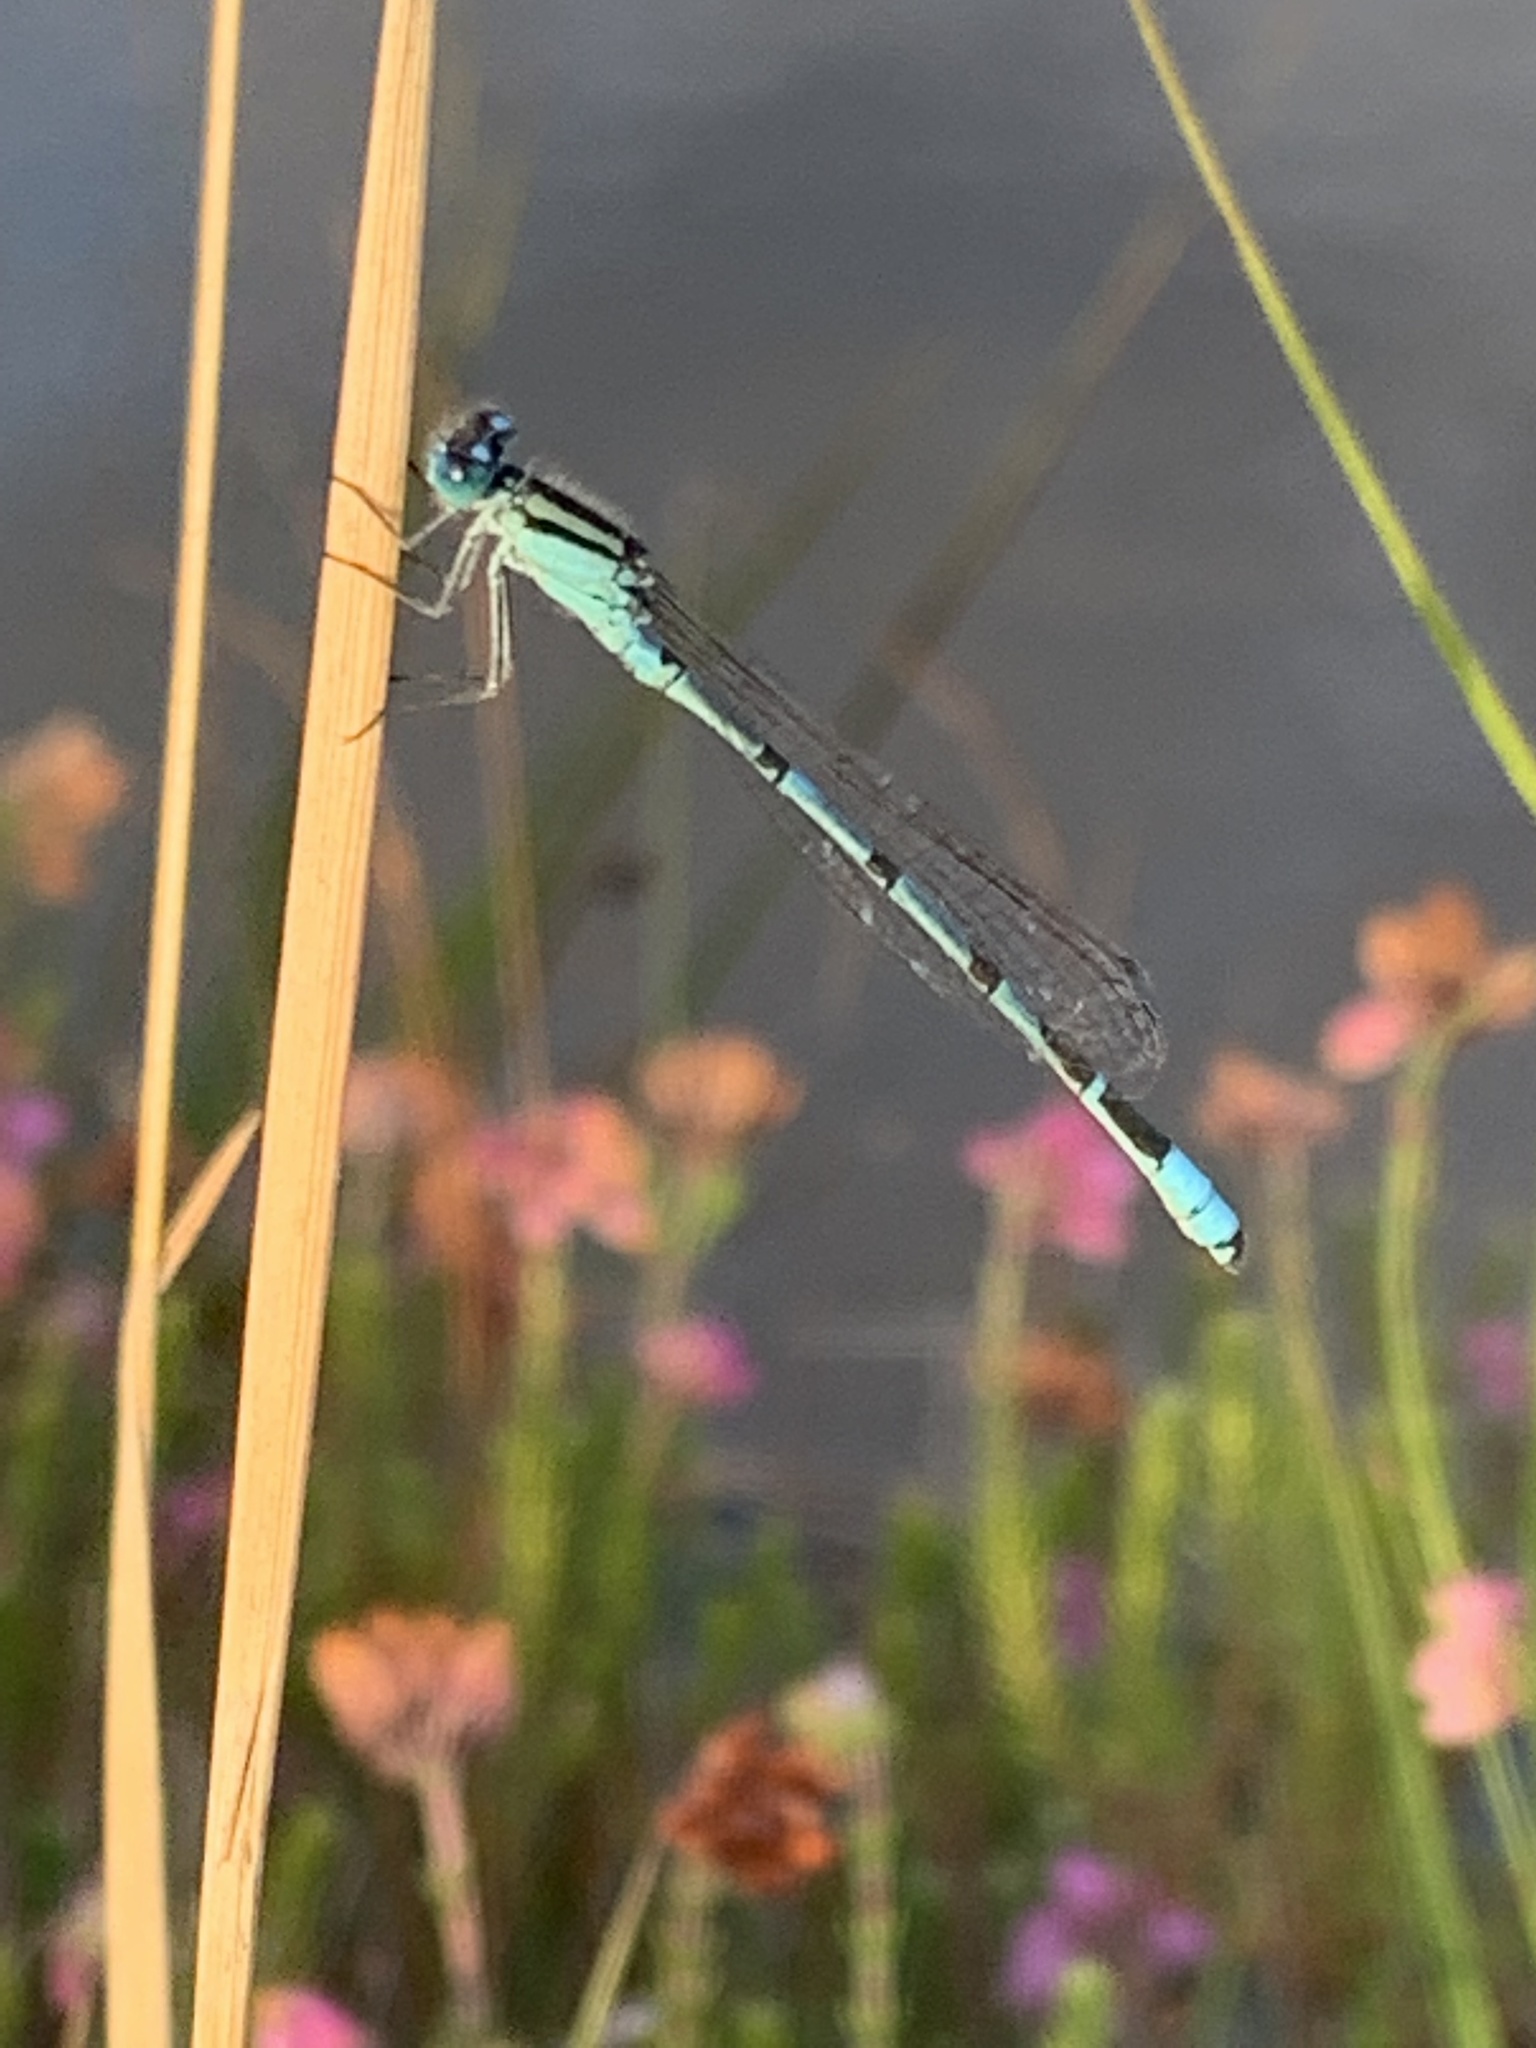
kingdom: Animalia
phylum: Arthropoda
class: Insecta
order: Odonata
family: Coenagrionidae
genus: Enallagma
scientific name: Enallagma cyathigerum
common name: Common blue damselfly
